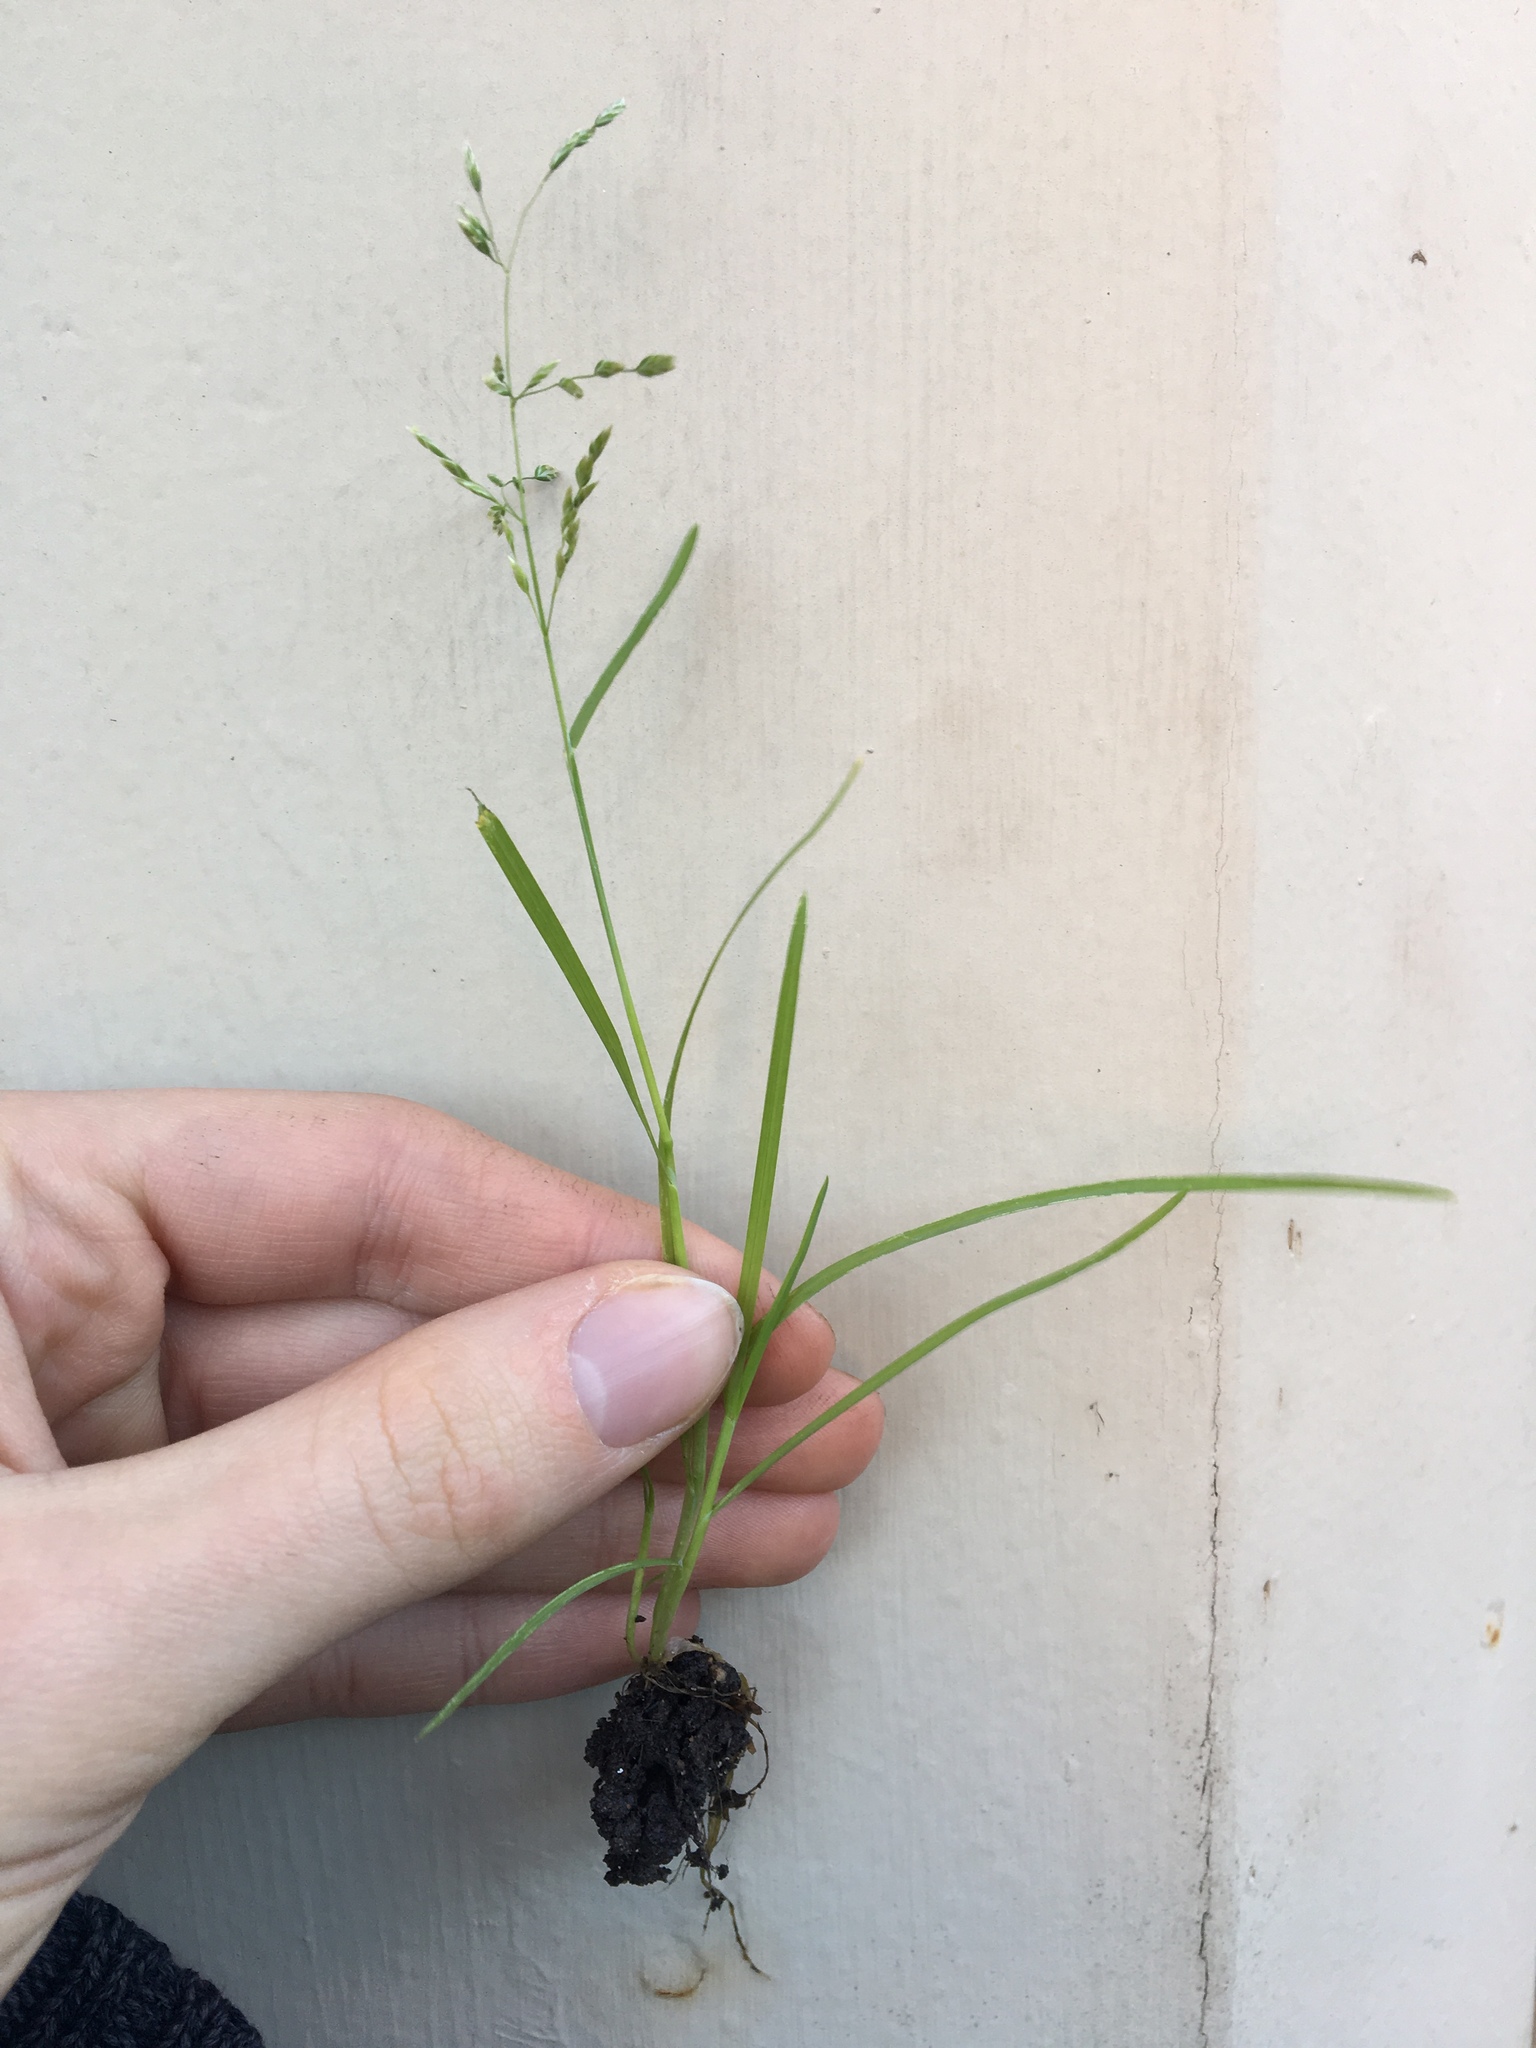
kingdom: Plantae
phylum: Tracheophyta
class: Liliopsida
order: Poales
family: Poaceae
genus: Poa
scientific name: Poa annua
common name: Annual bluegrass
